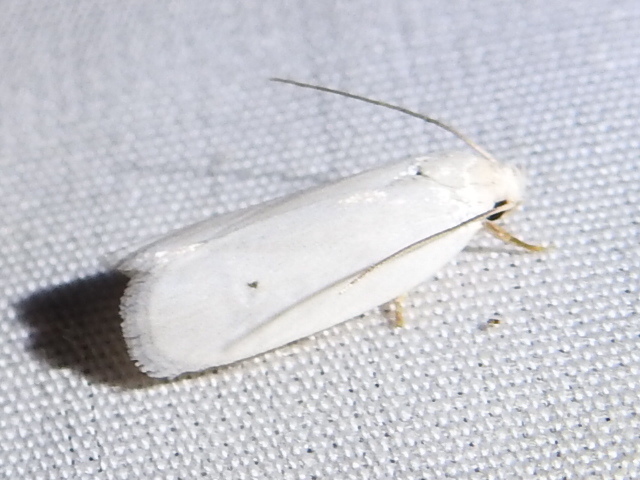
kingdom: Animalia
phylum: Arthropoda
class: Insecta
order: Lepidoptera
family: Depressariidae
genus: Antaeotricha
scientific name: Antaeotricha albulella
